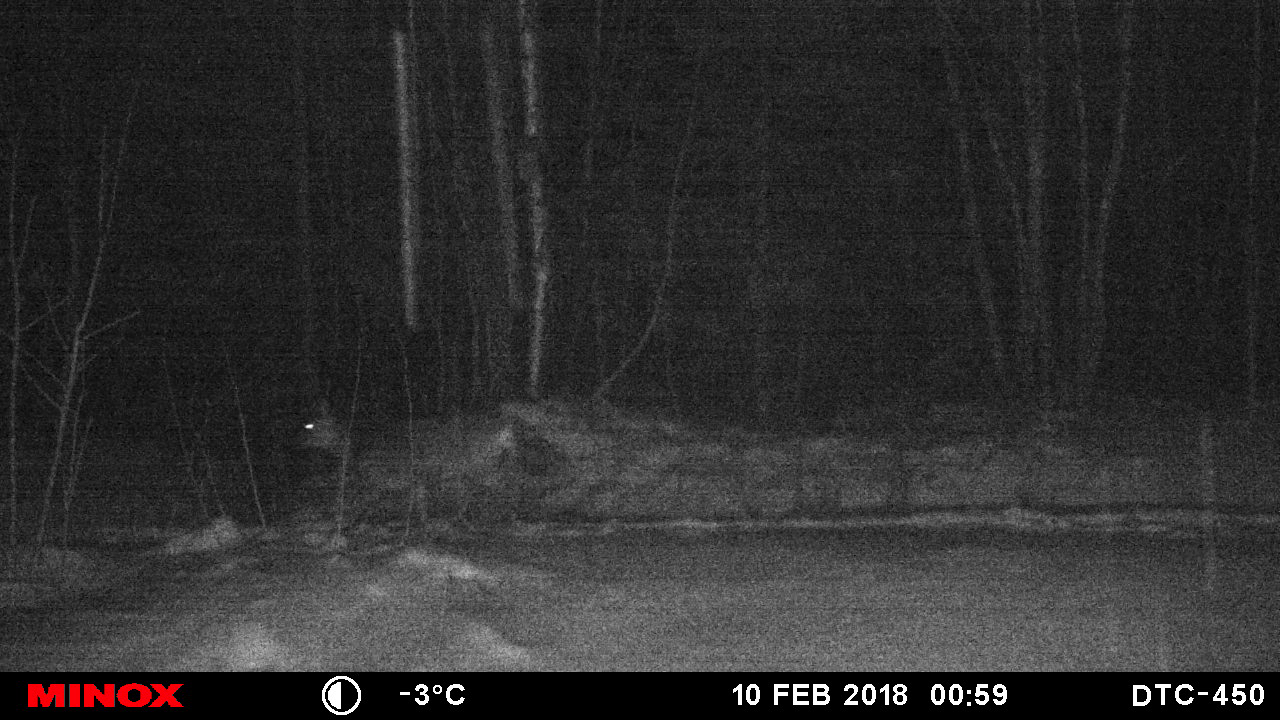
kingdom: Animalia
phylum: Chordata
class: Mammalia
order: Artiodactyla
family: Cervidae
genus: Capreolus
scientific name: Capreolus capreolus
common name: Western roe deer
